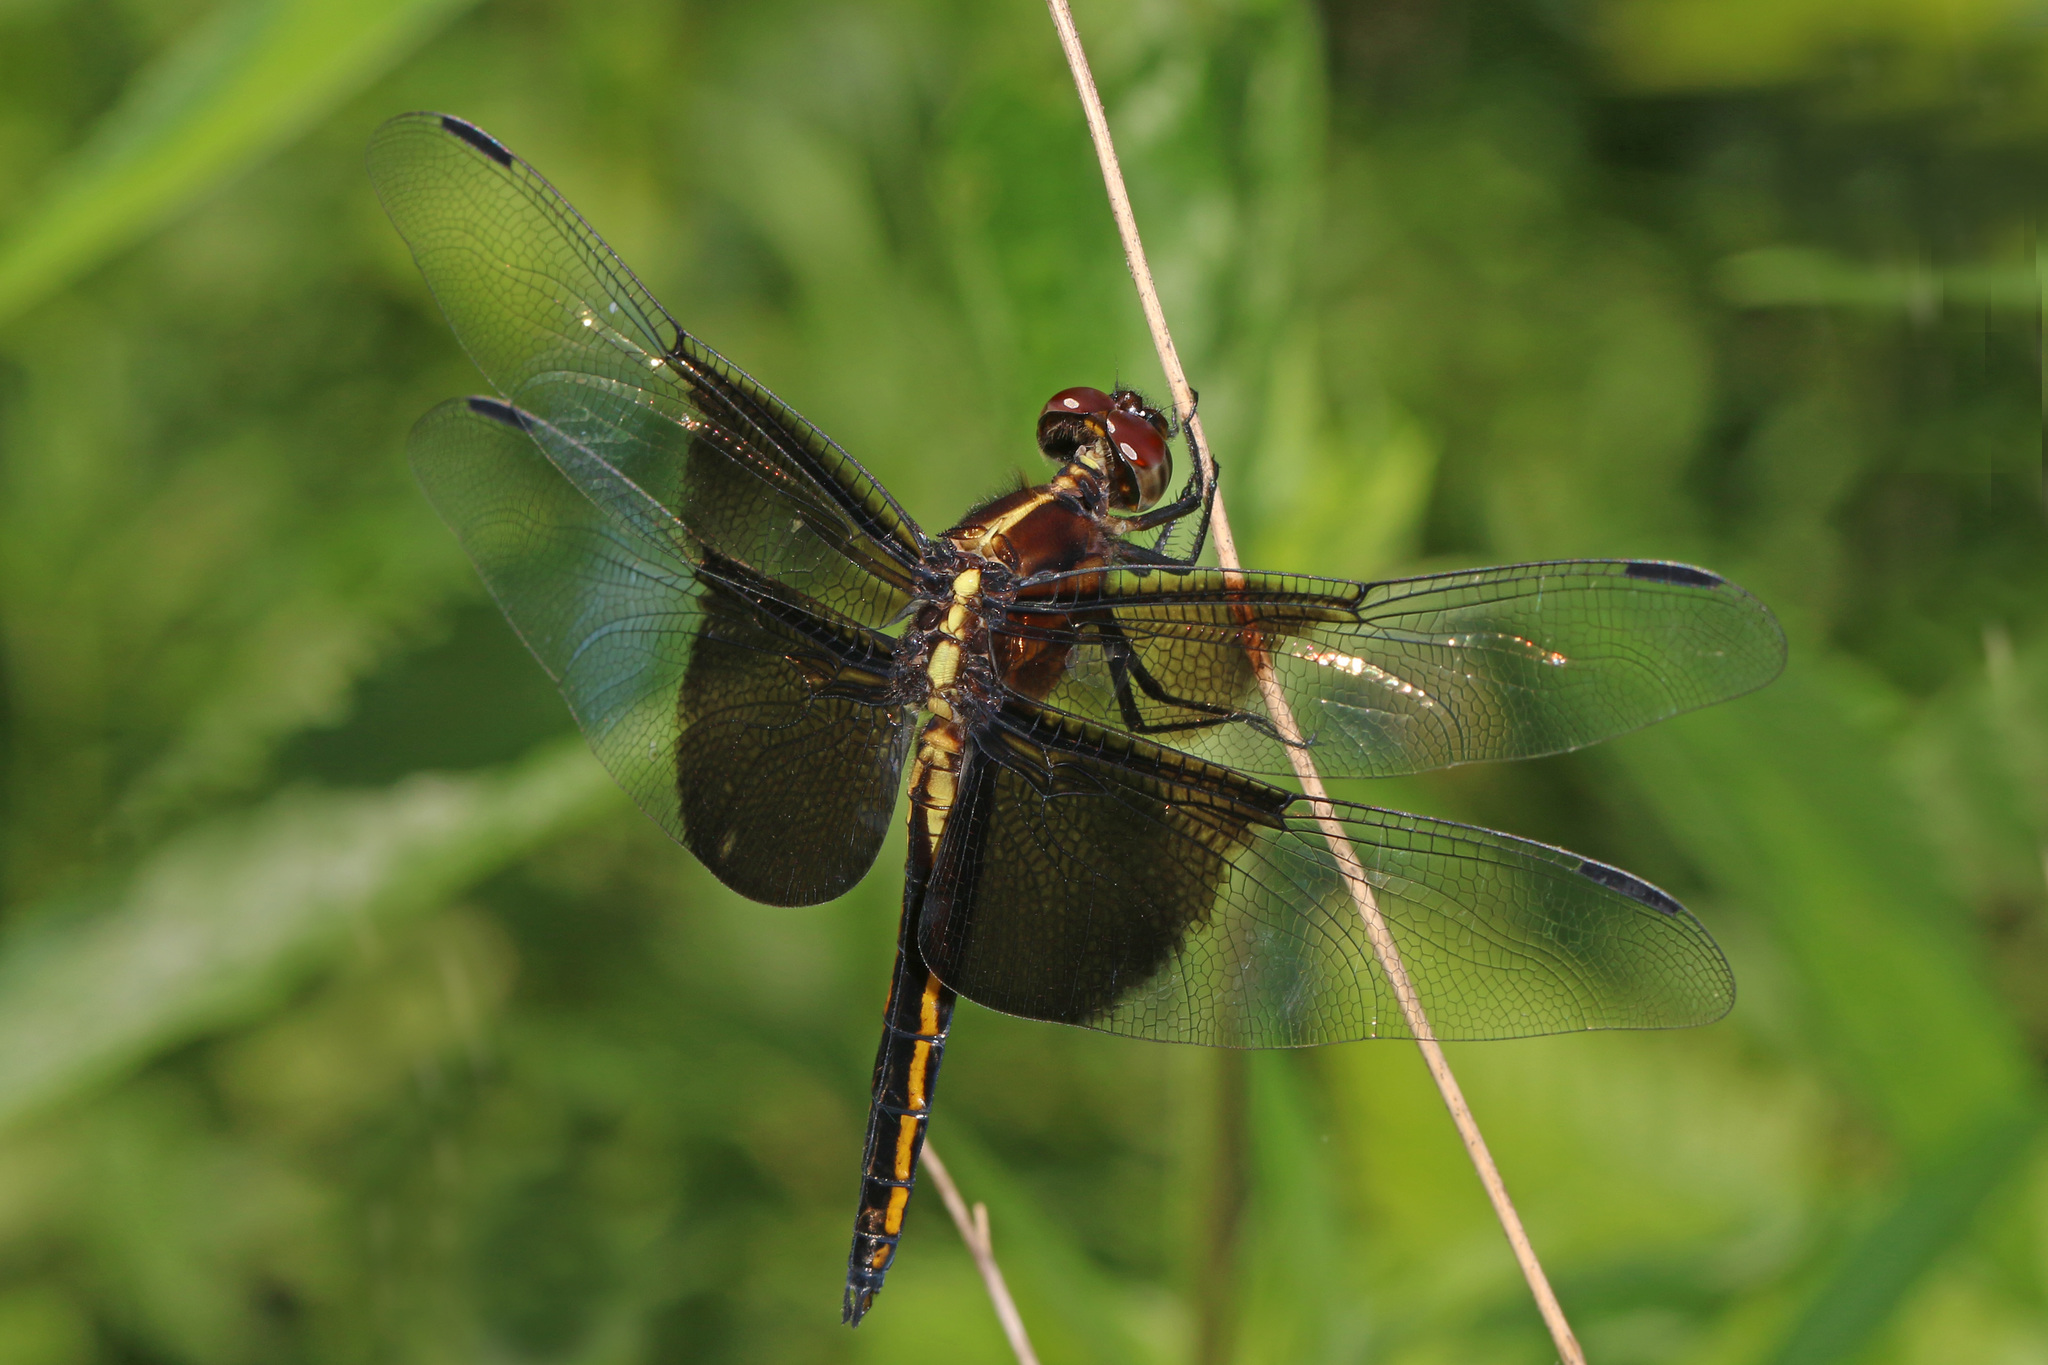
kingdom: Animalia
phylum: Arthropoda
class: Insecta
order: Odonata
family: Libellulidae
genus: Libellula
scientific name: Libellula luctuosa
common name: Widow skimmer
